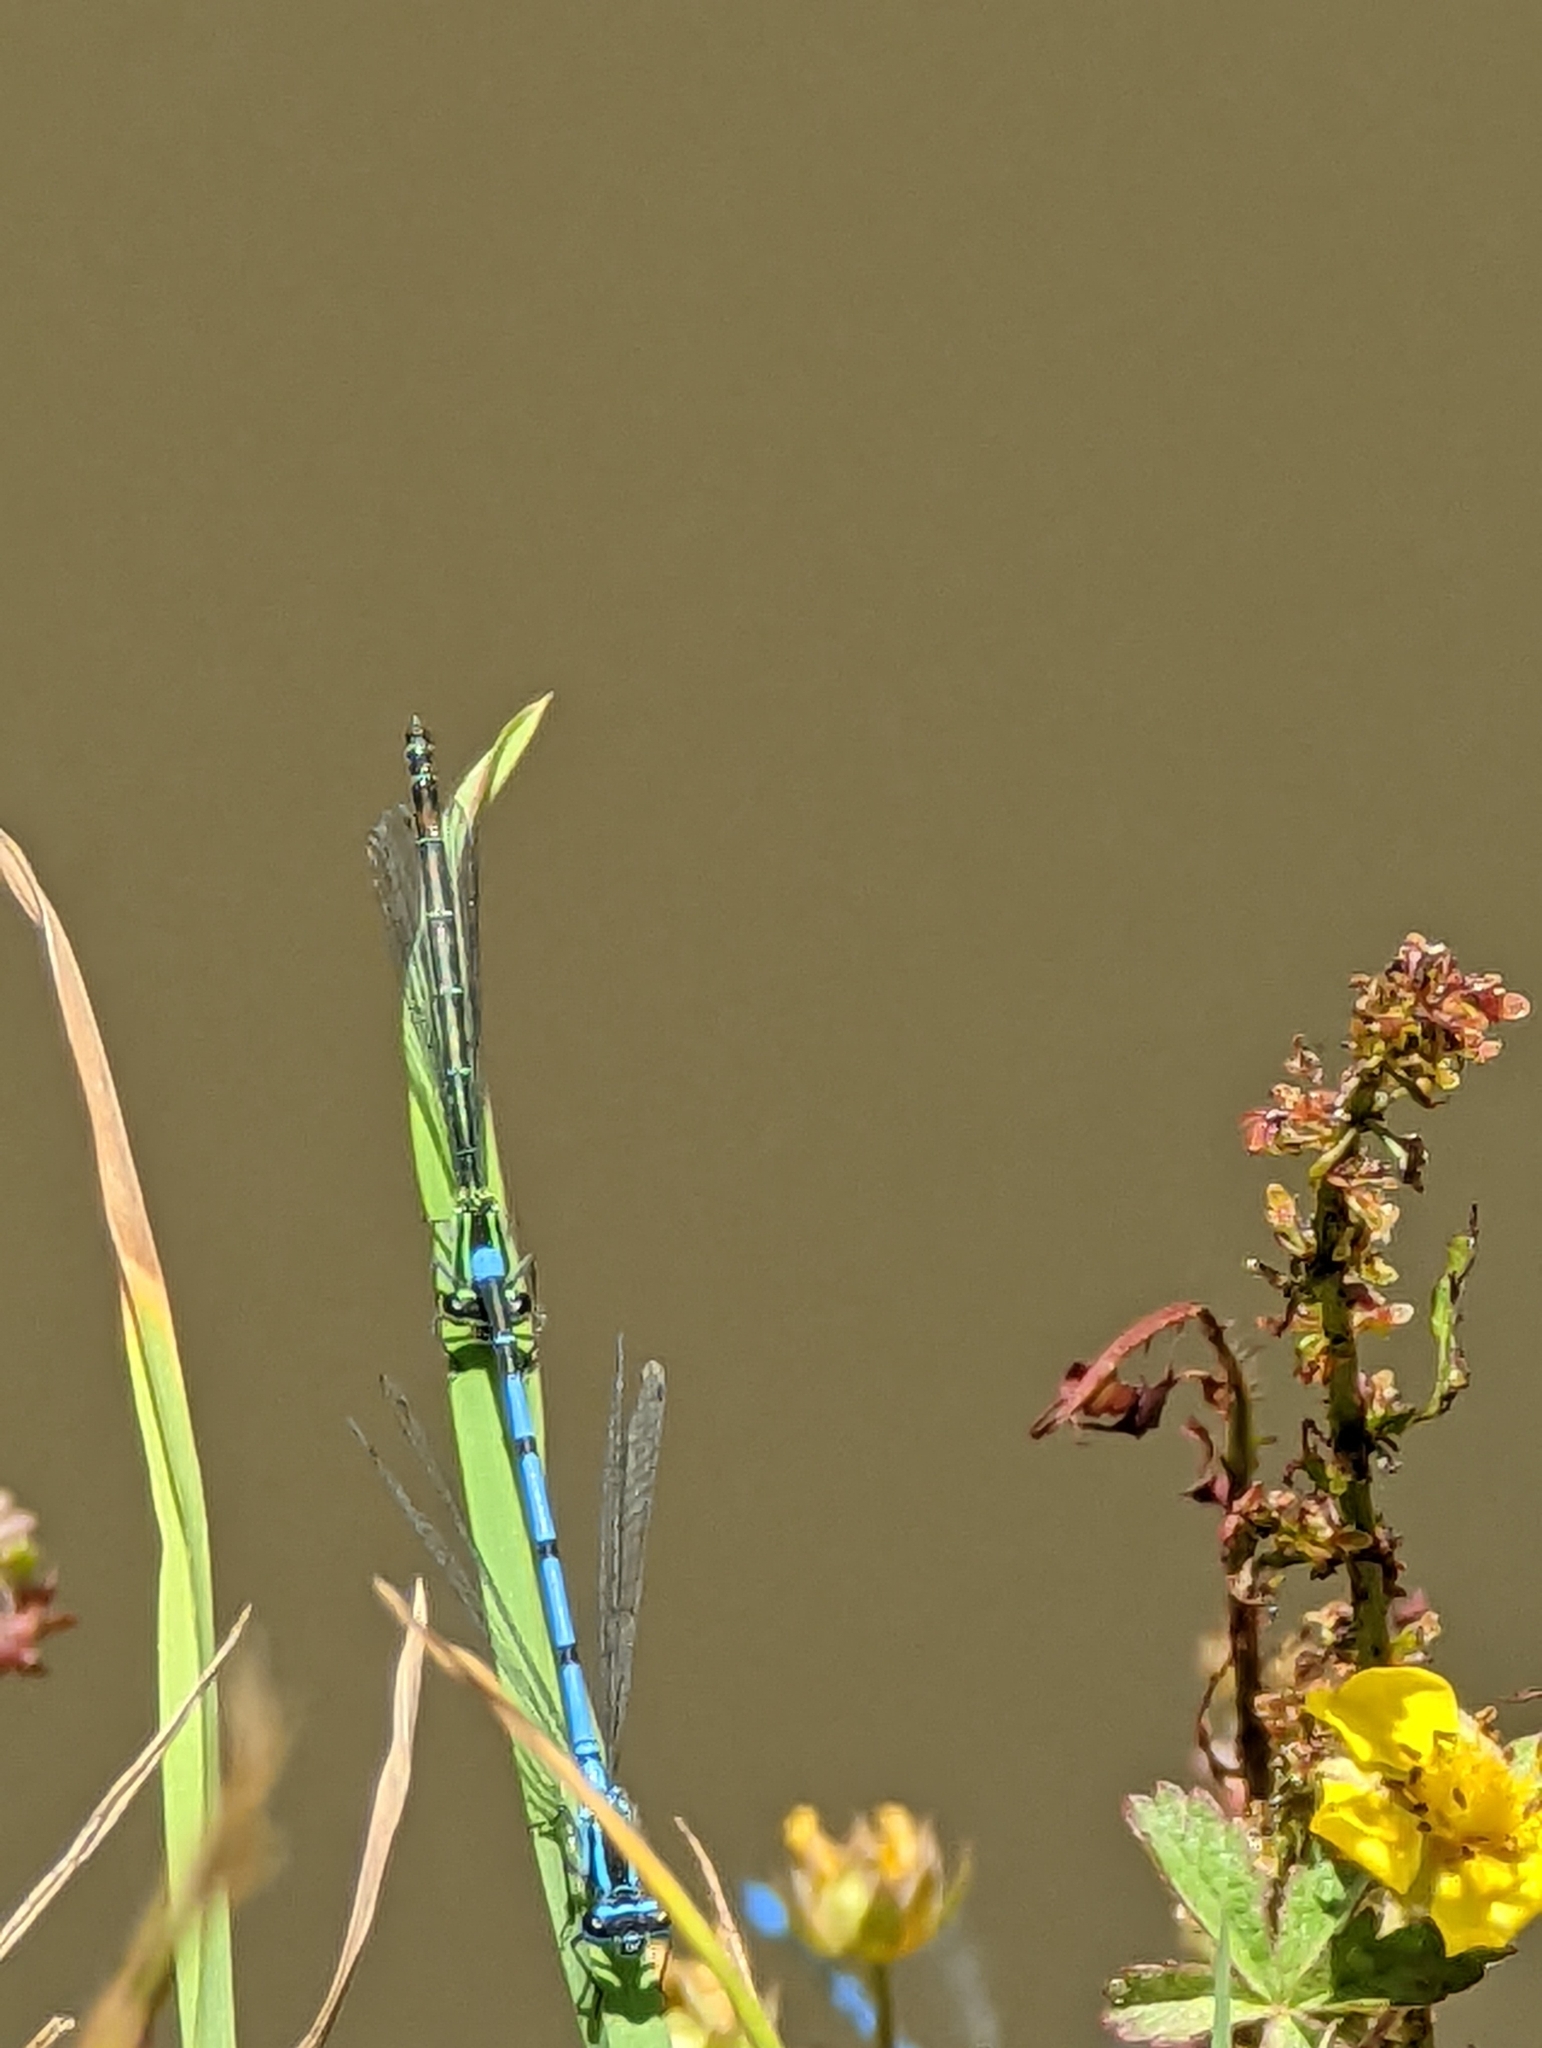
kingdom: Animalia
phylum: Arthropoda
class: Insecta
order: Odonata
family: Coenagrionidae
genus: Coenagrion
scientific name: Coenagrion puella
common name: Azure damselfly
